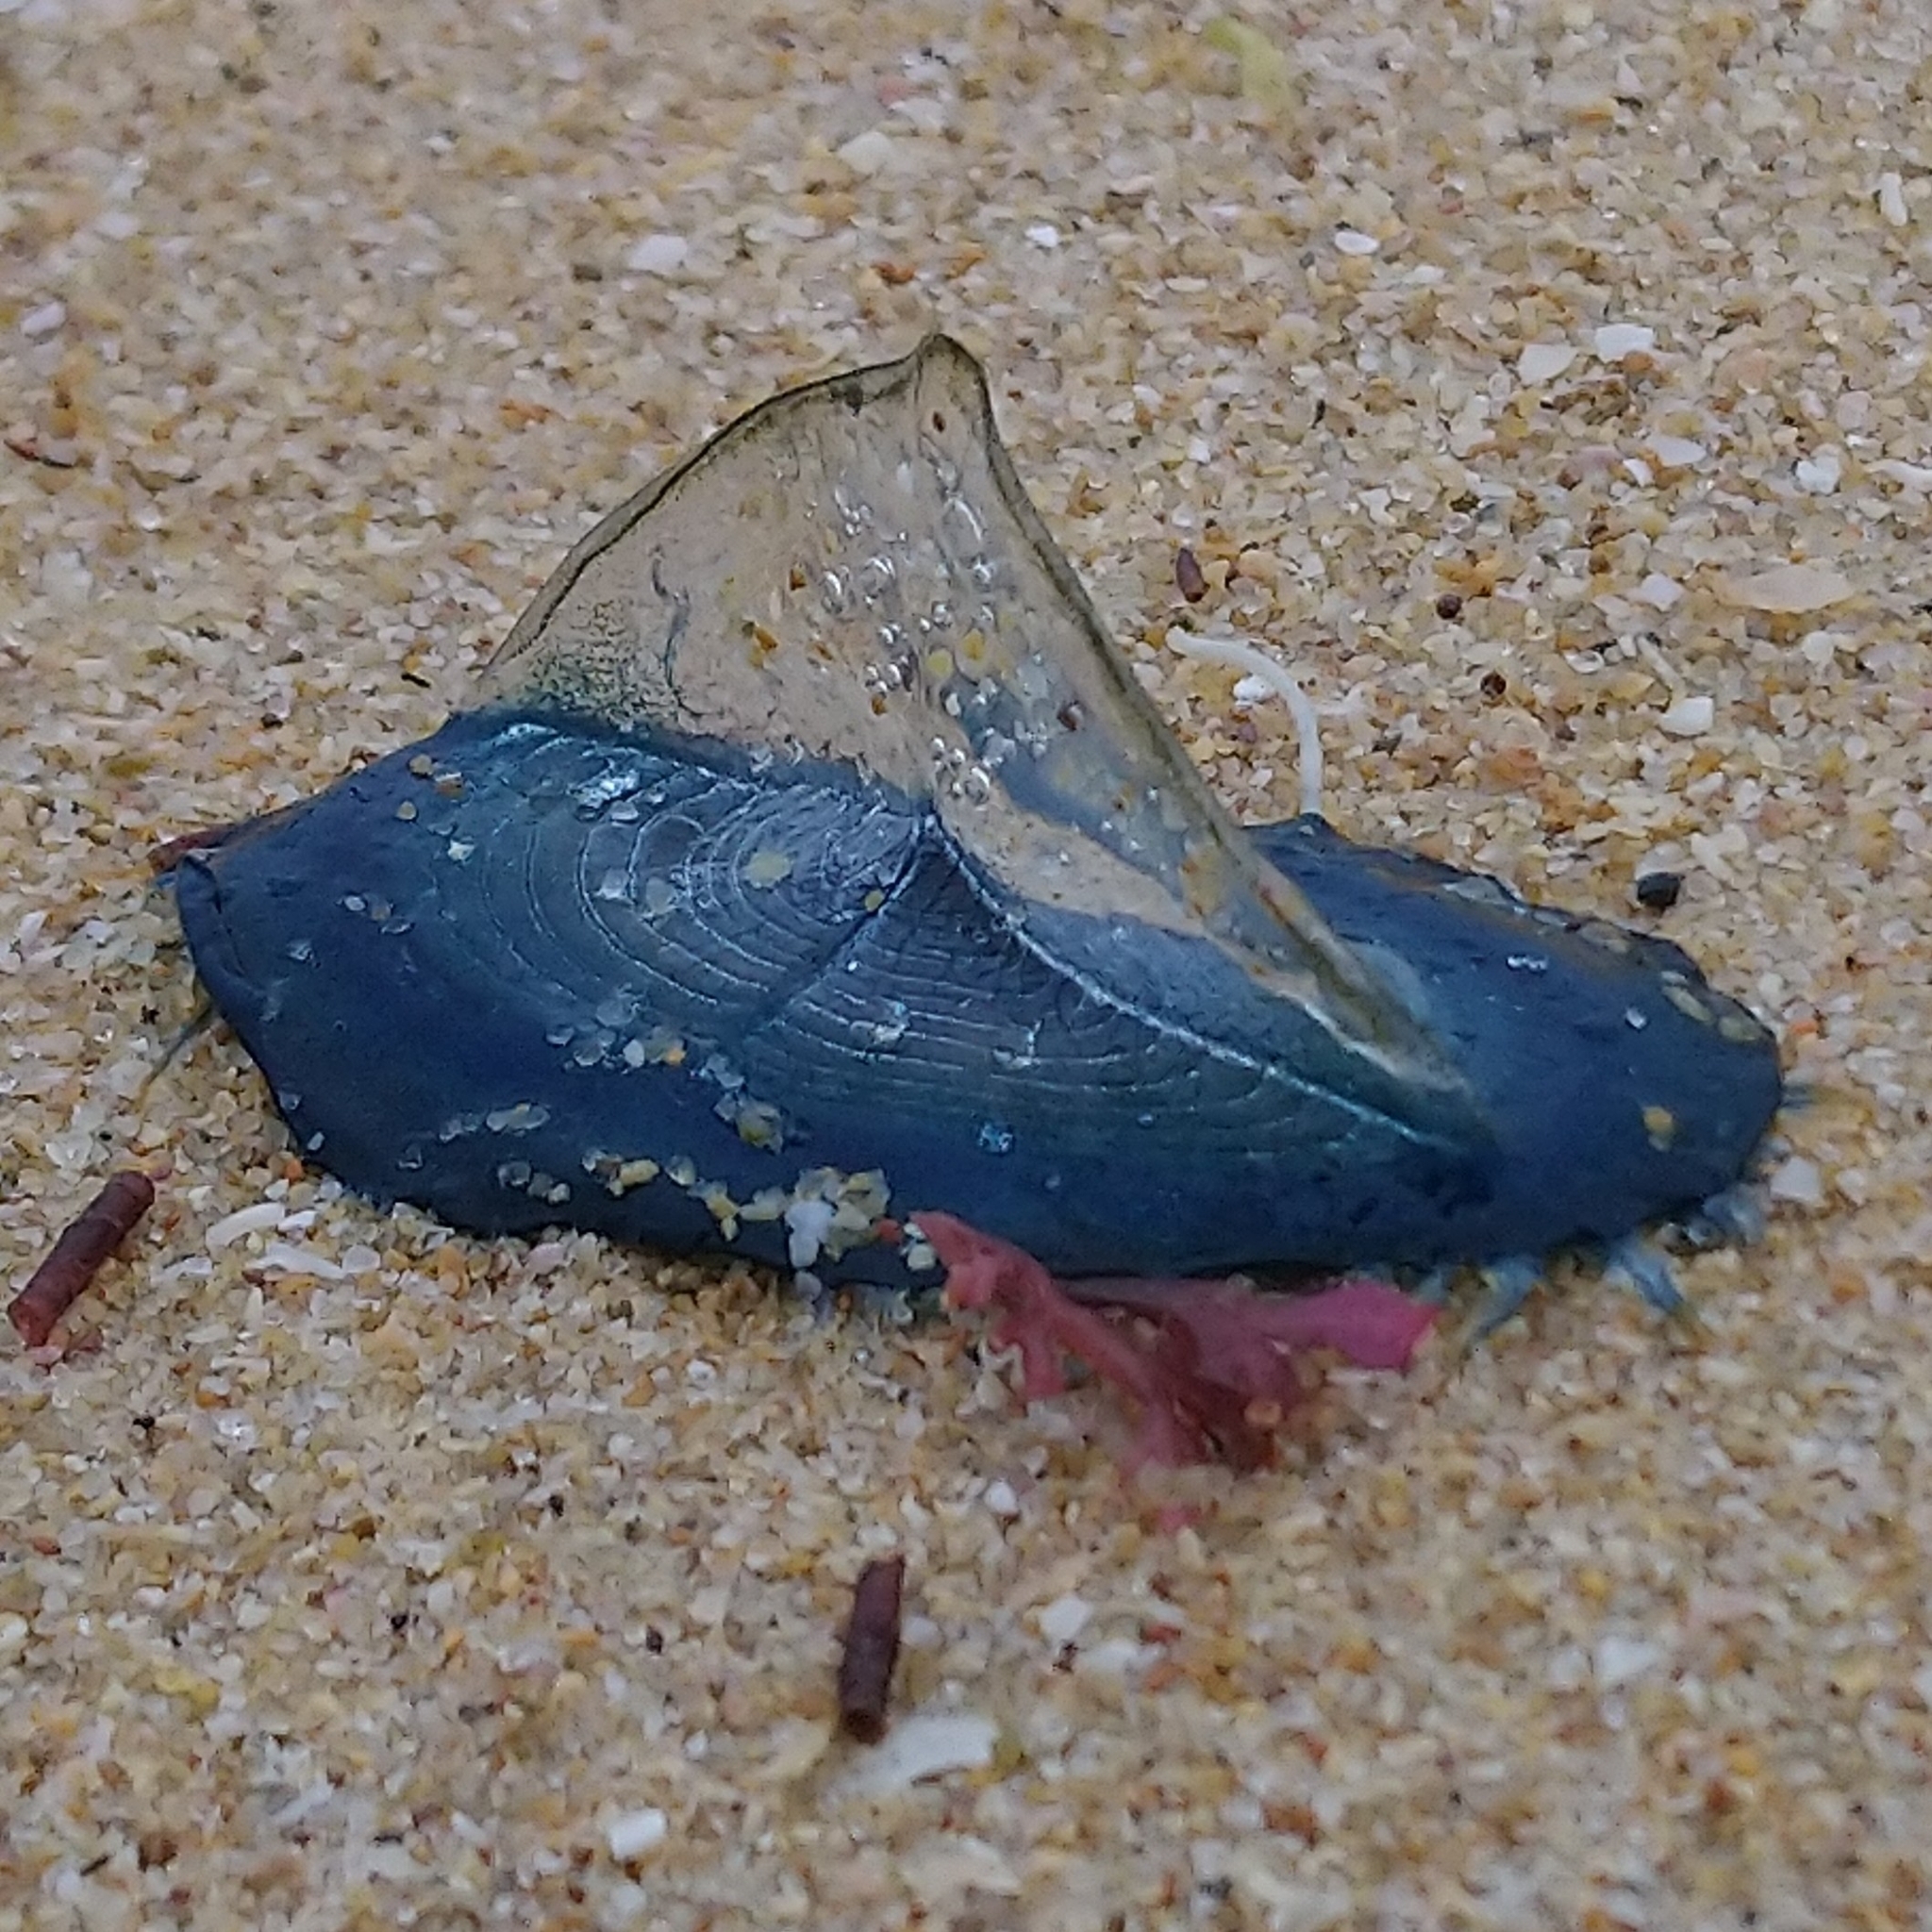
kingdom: Animalia
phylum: Cnidaria
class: Hydrozoa
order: Anthoathecata
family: Porpitidae
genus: Velella
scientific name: Velella velella
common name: By-the-wind-sailor
